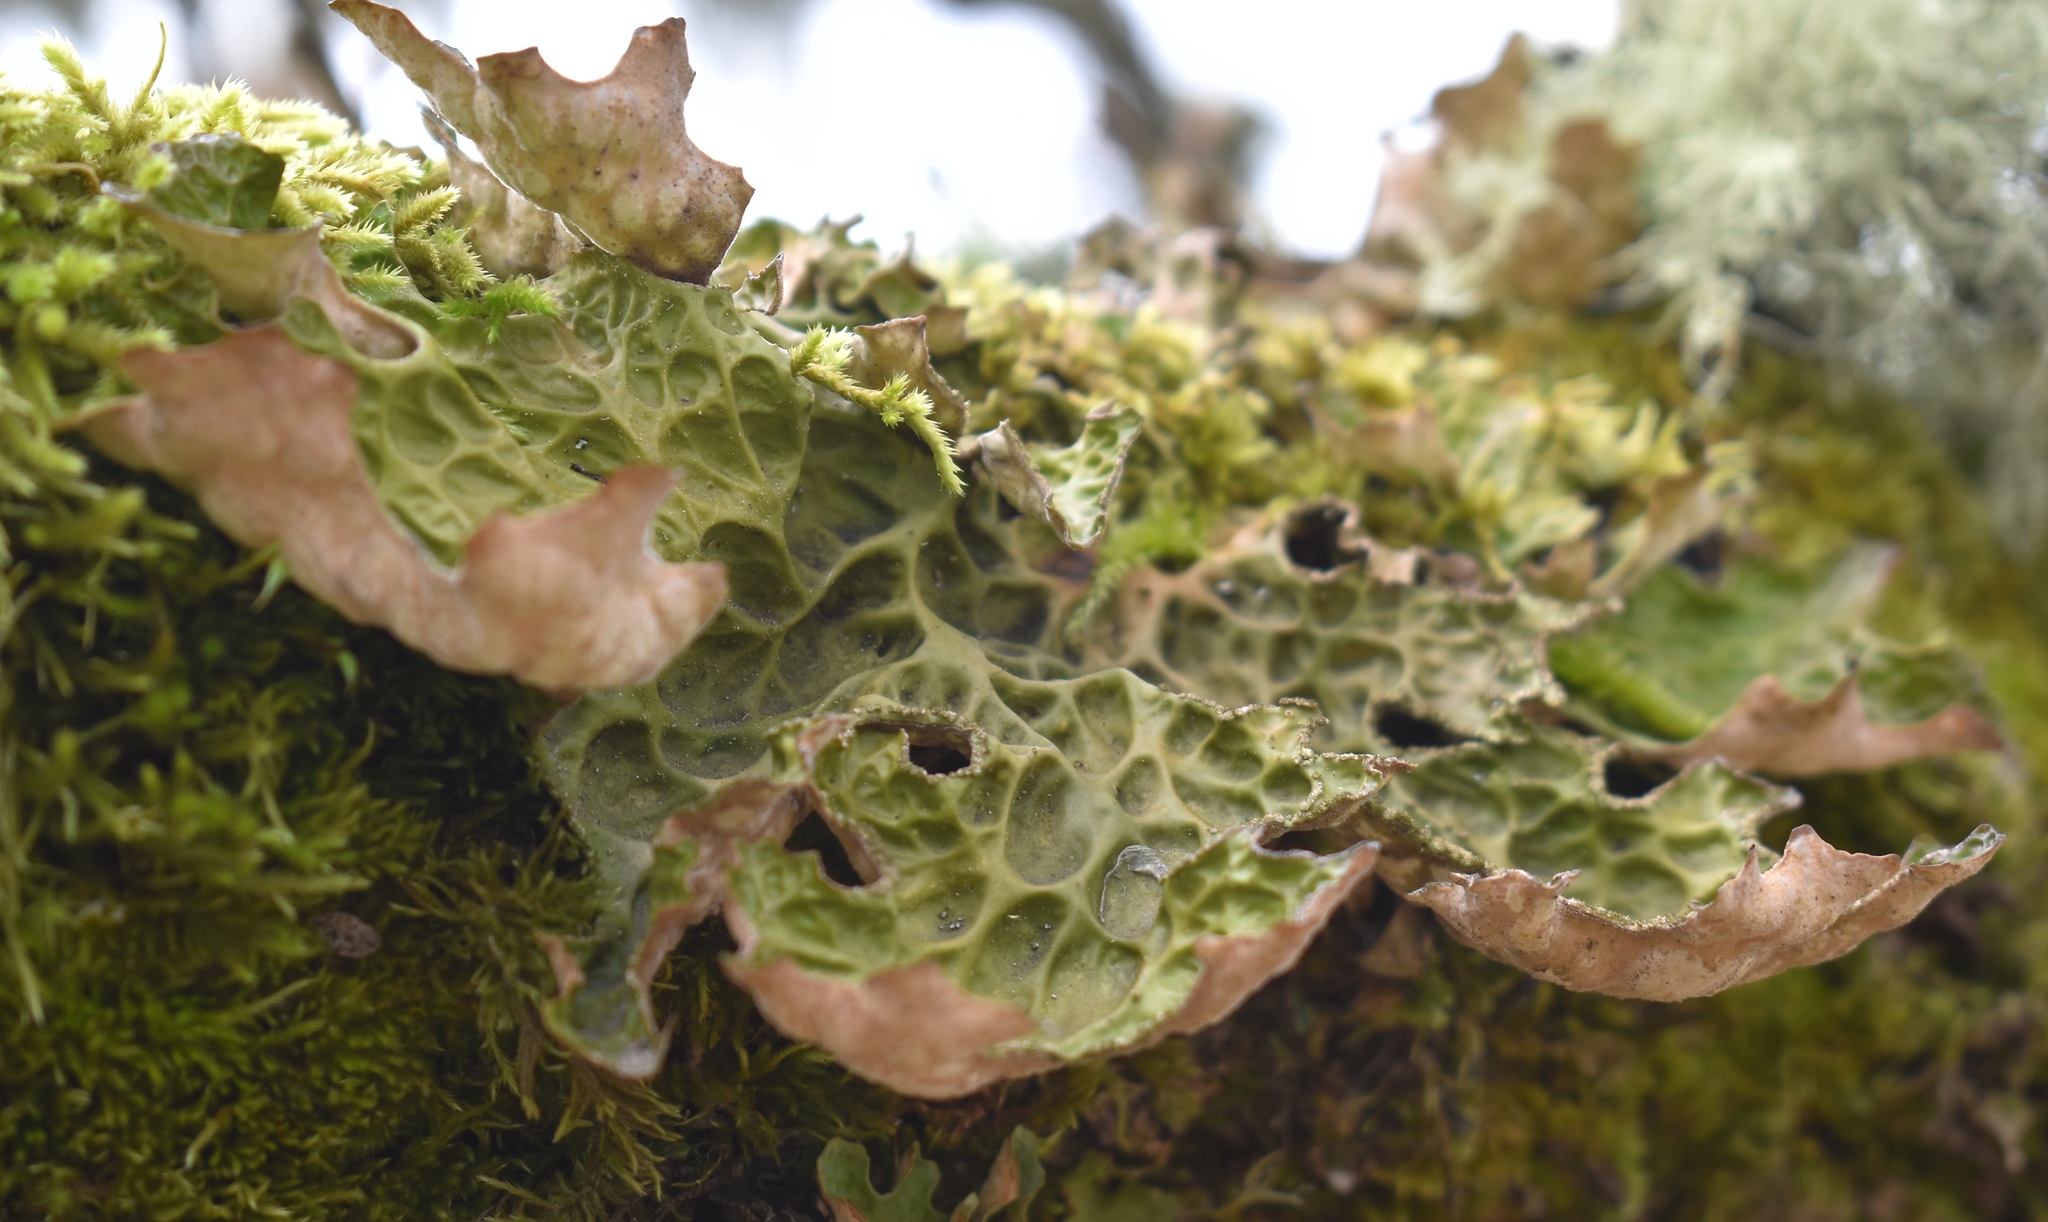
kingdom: Fungi
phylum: Ascomycota
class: Lecanoromycetes
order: Peltigerales
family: Lobariaceae
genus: Lobaria
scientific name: Lobaria pulmonaria
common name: Lungwort
